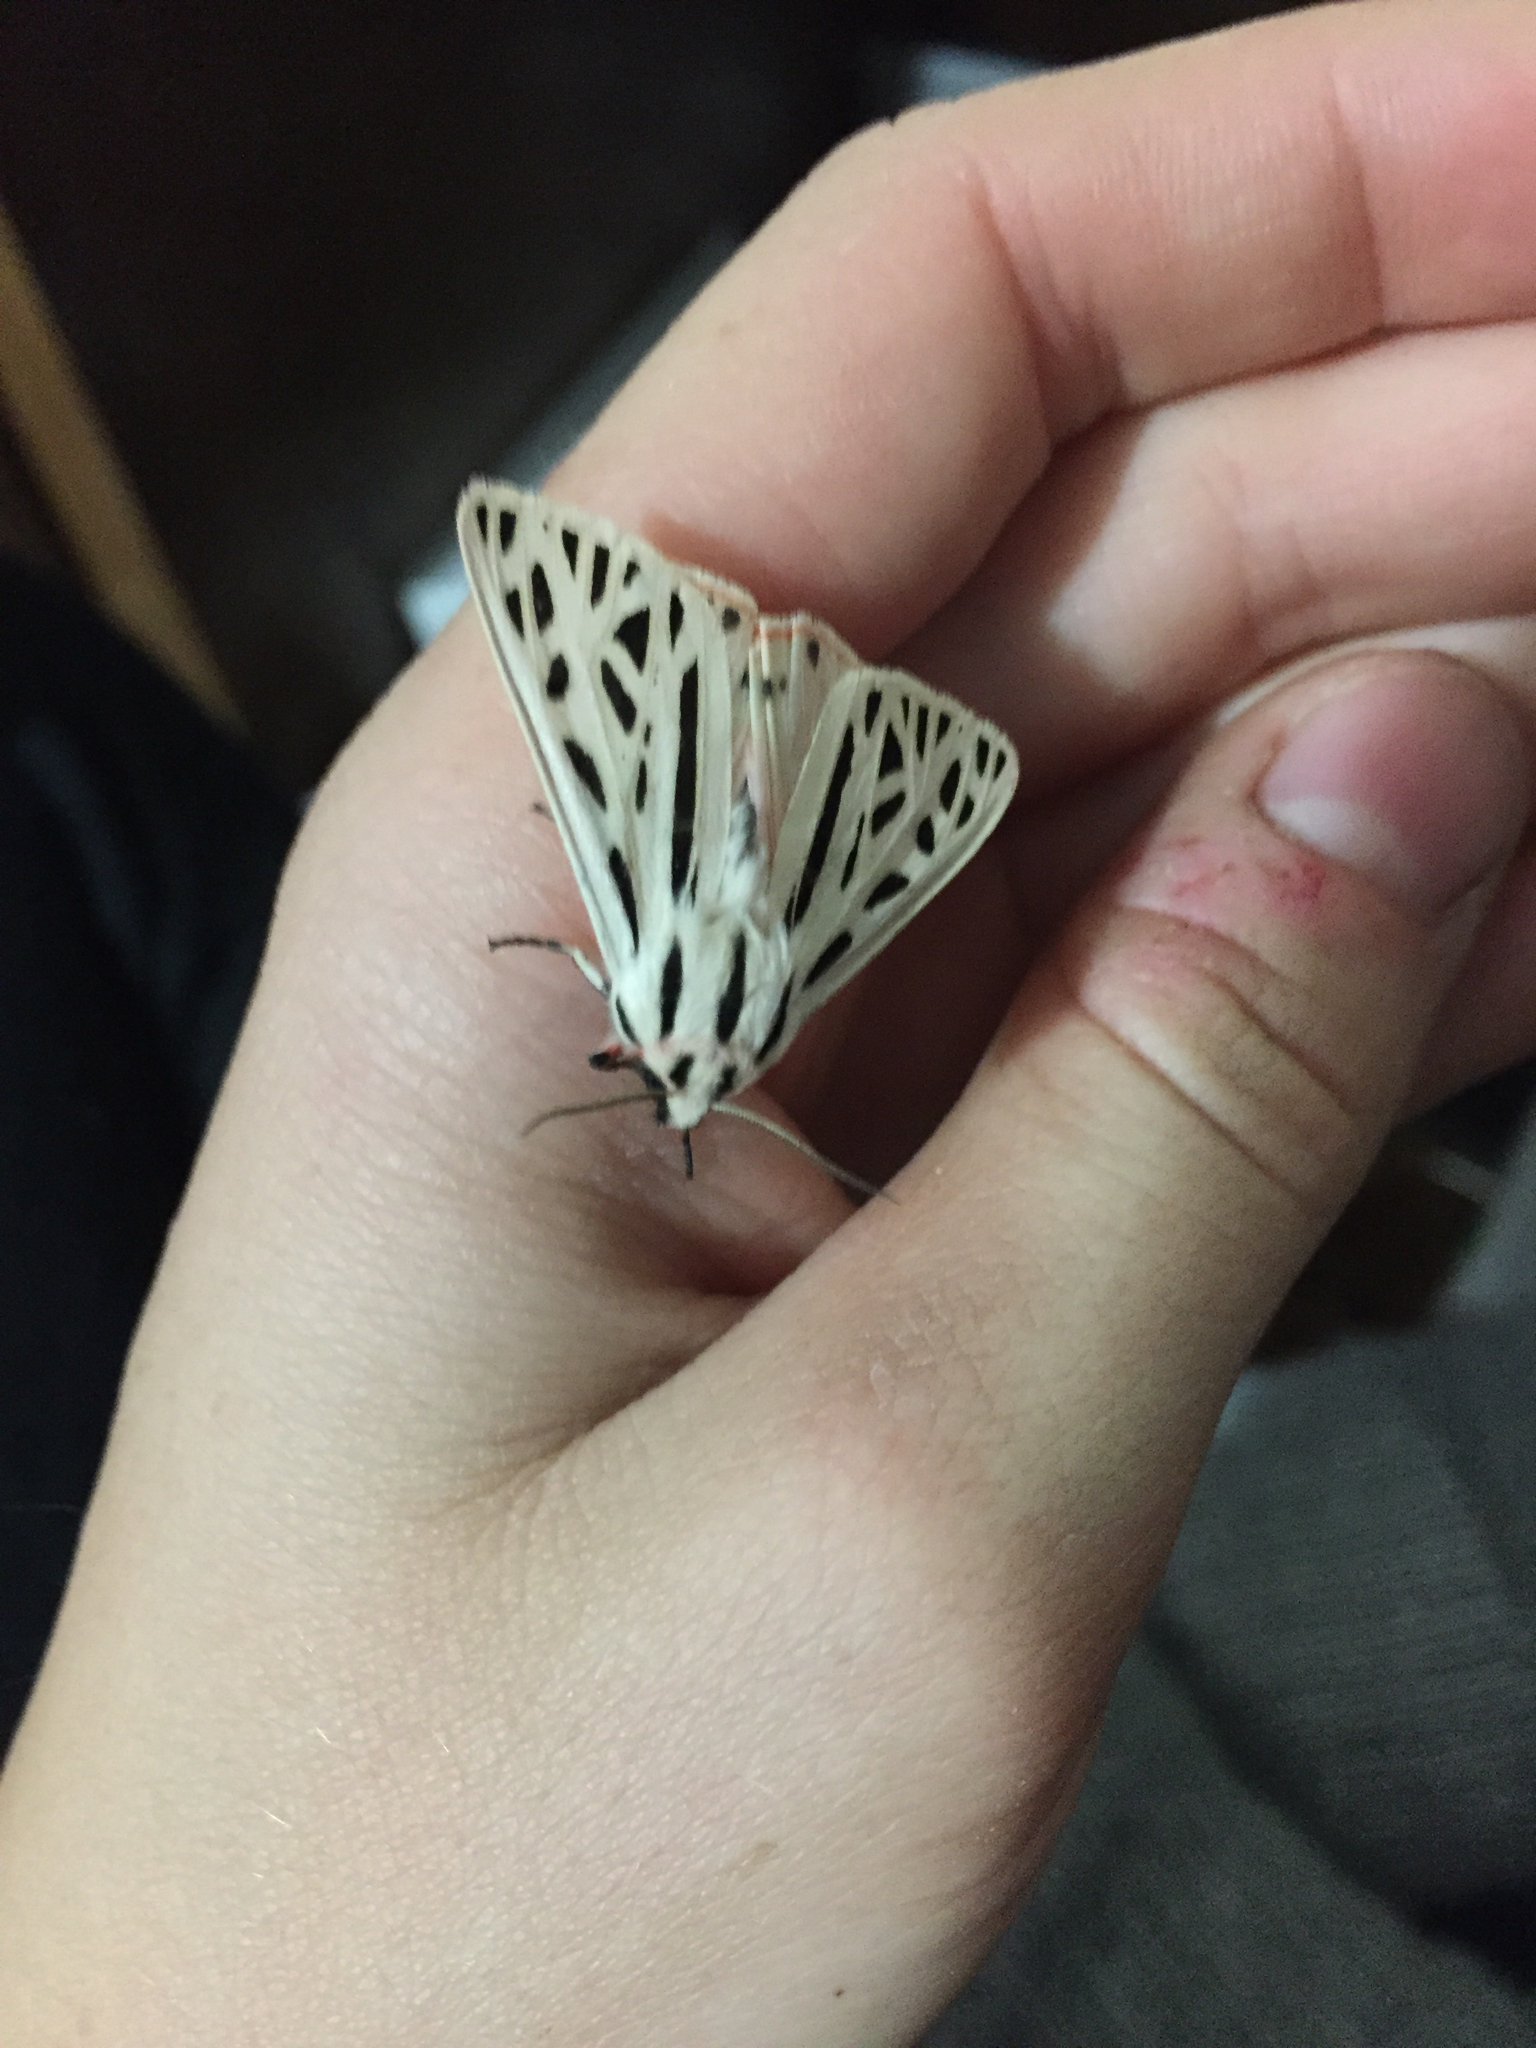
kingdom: Animalia
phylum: Arthropoda
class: Insecta
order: Lepidoptera
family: Erebidae
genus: Apantesis
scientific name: Apantesis arge
